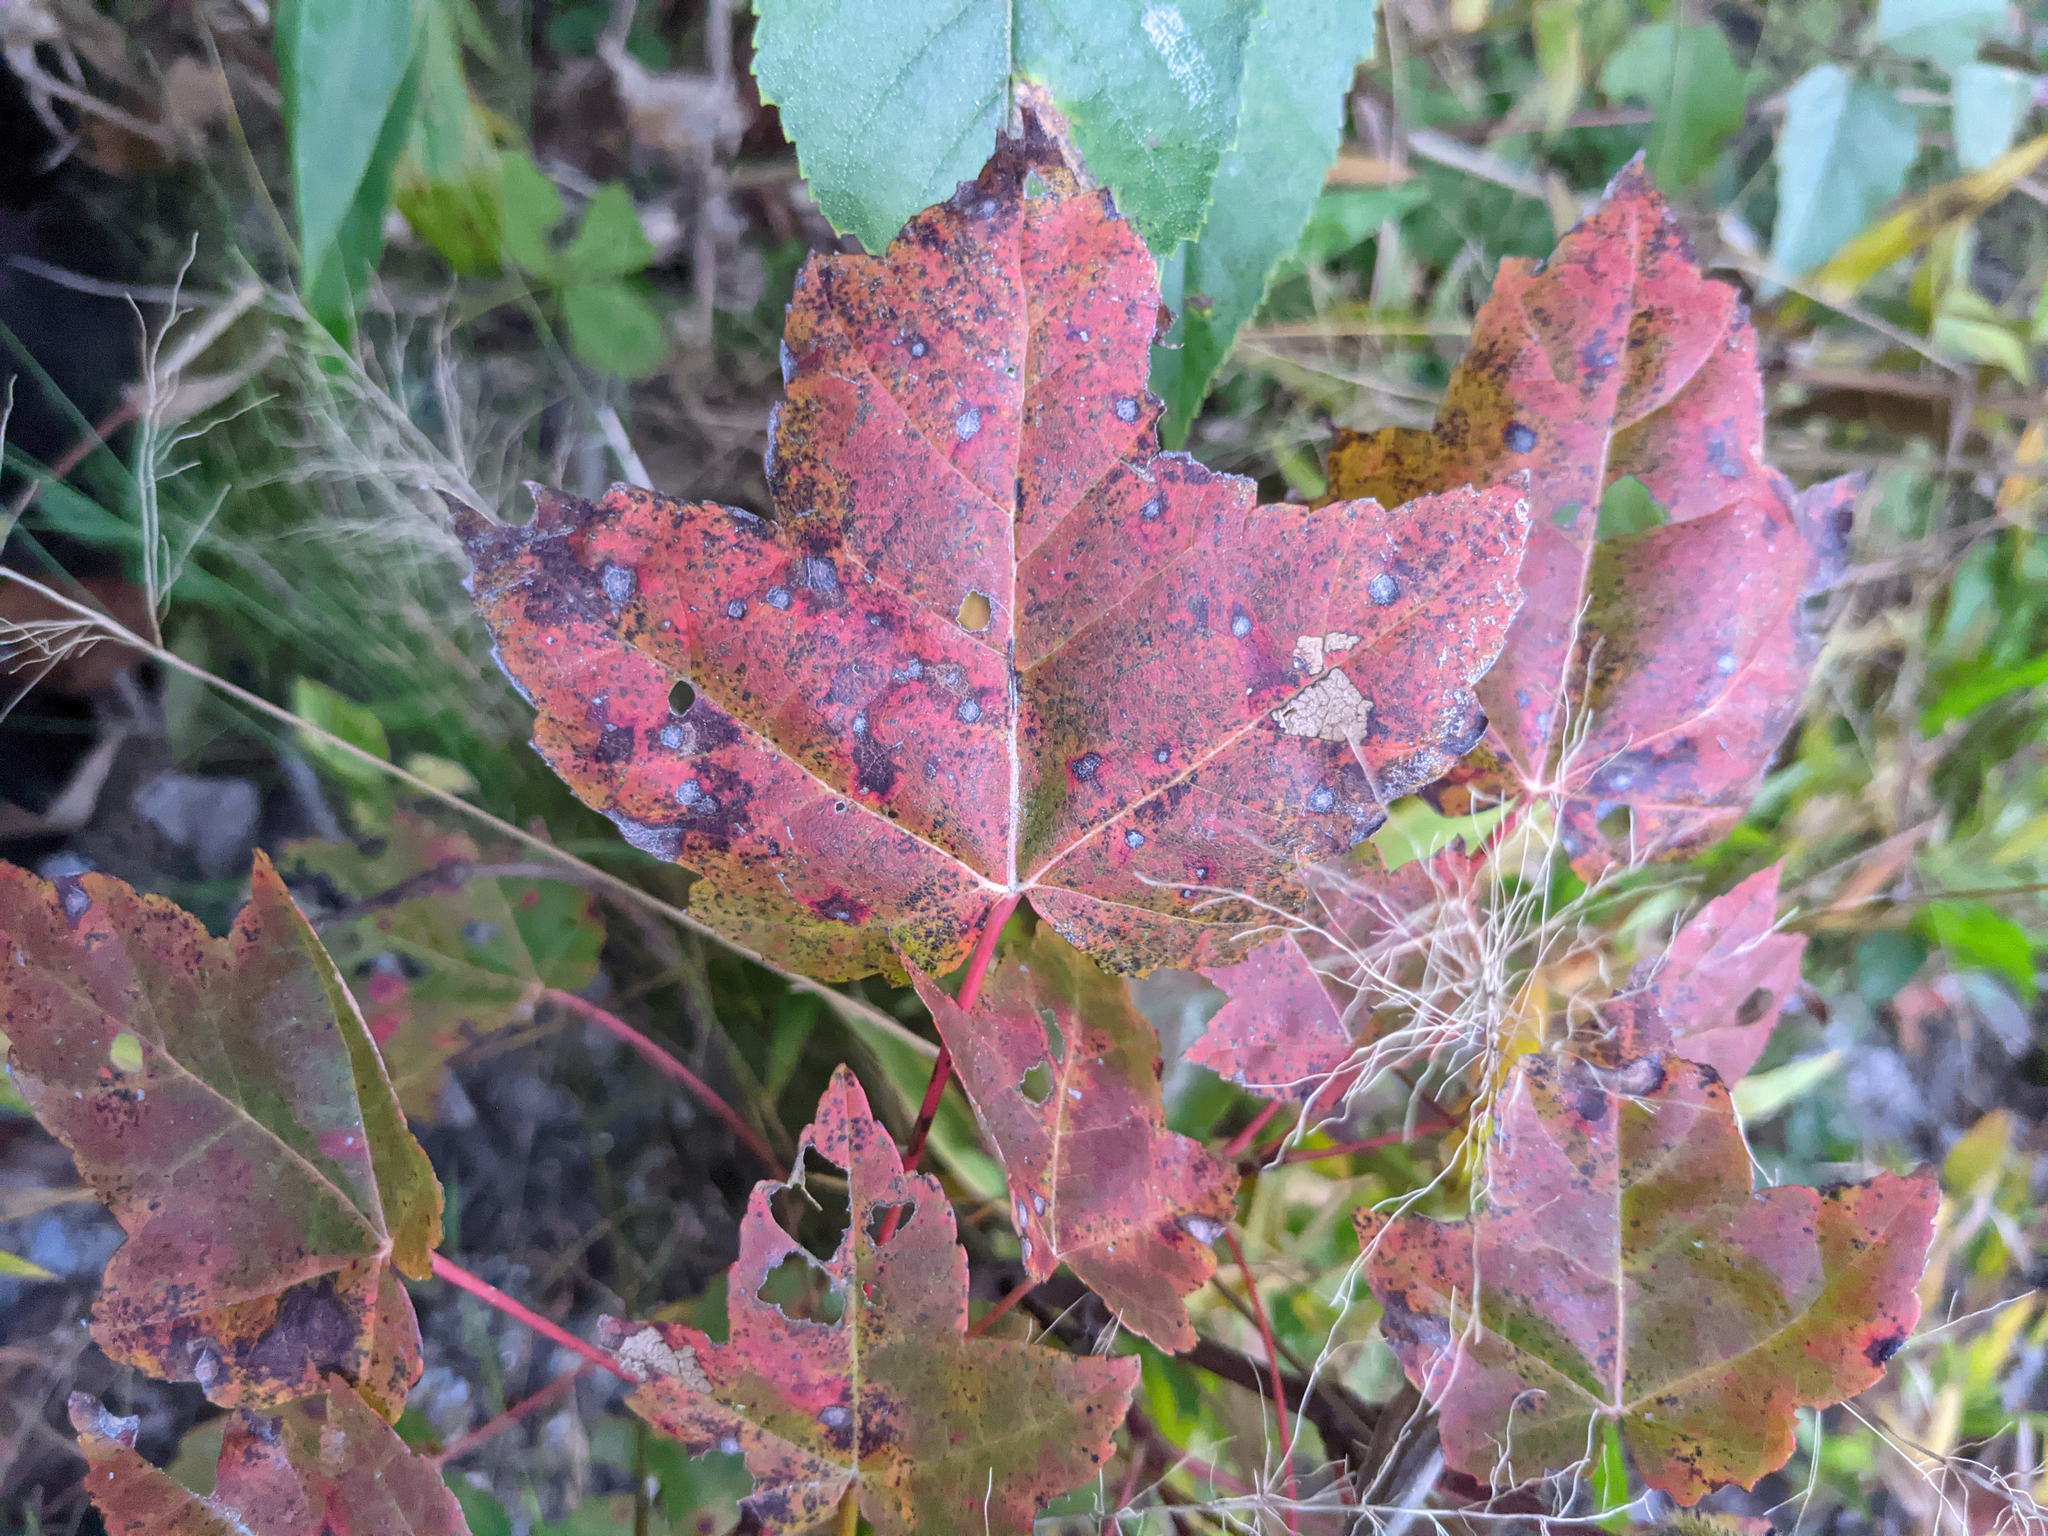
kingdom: Plantae
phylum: Tracheophyta
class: Magnoliopsida
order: Sapindales
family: Sapindaceae
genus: Acer
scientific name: Acer rubrum
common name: Red maple
